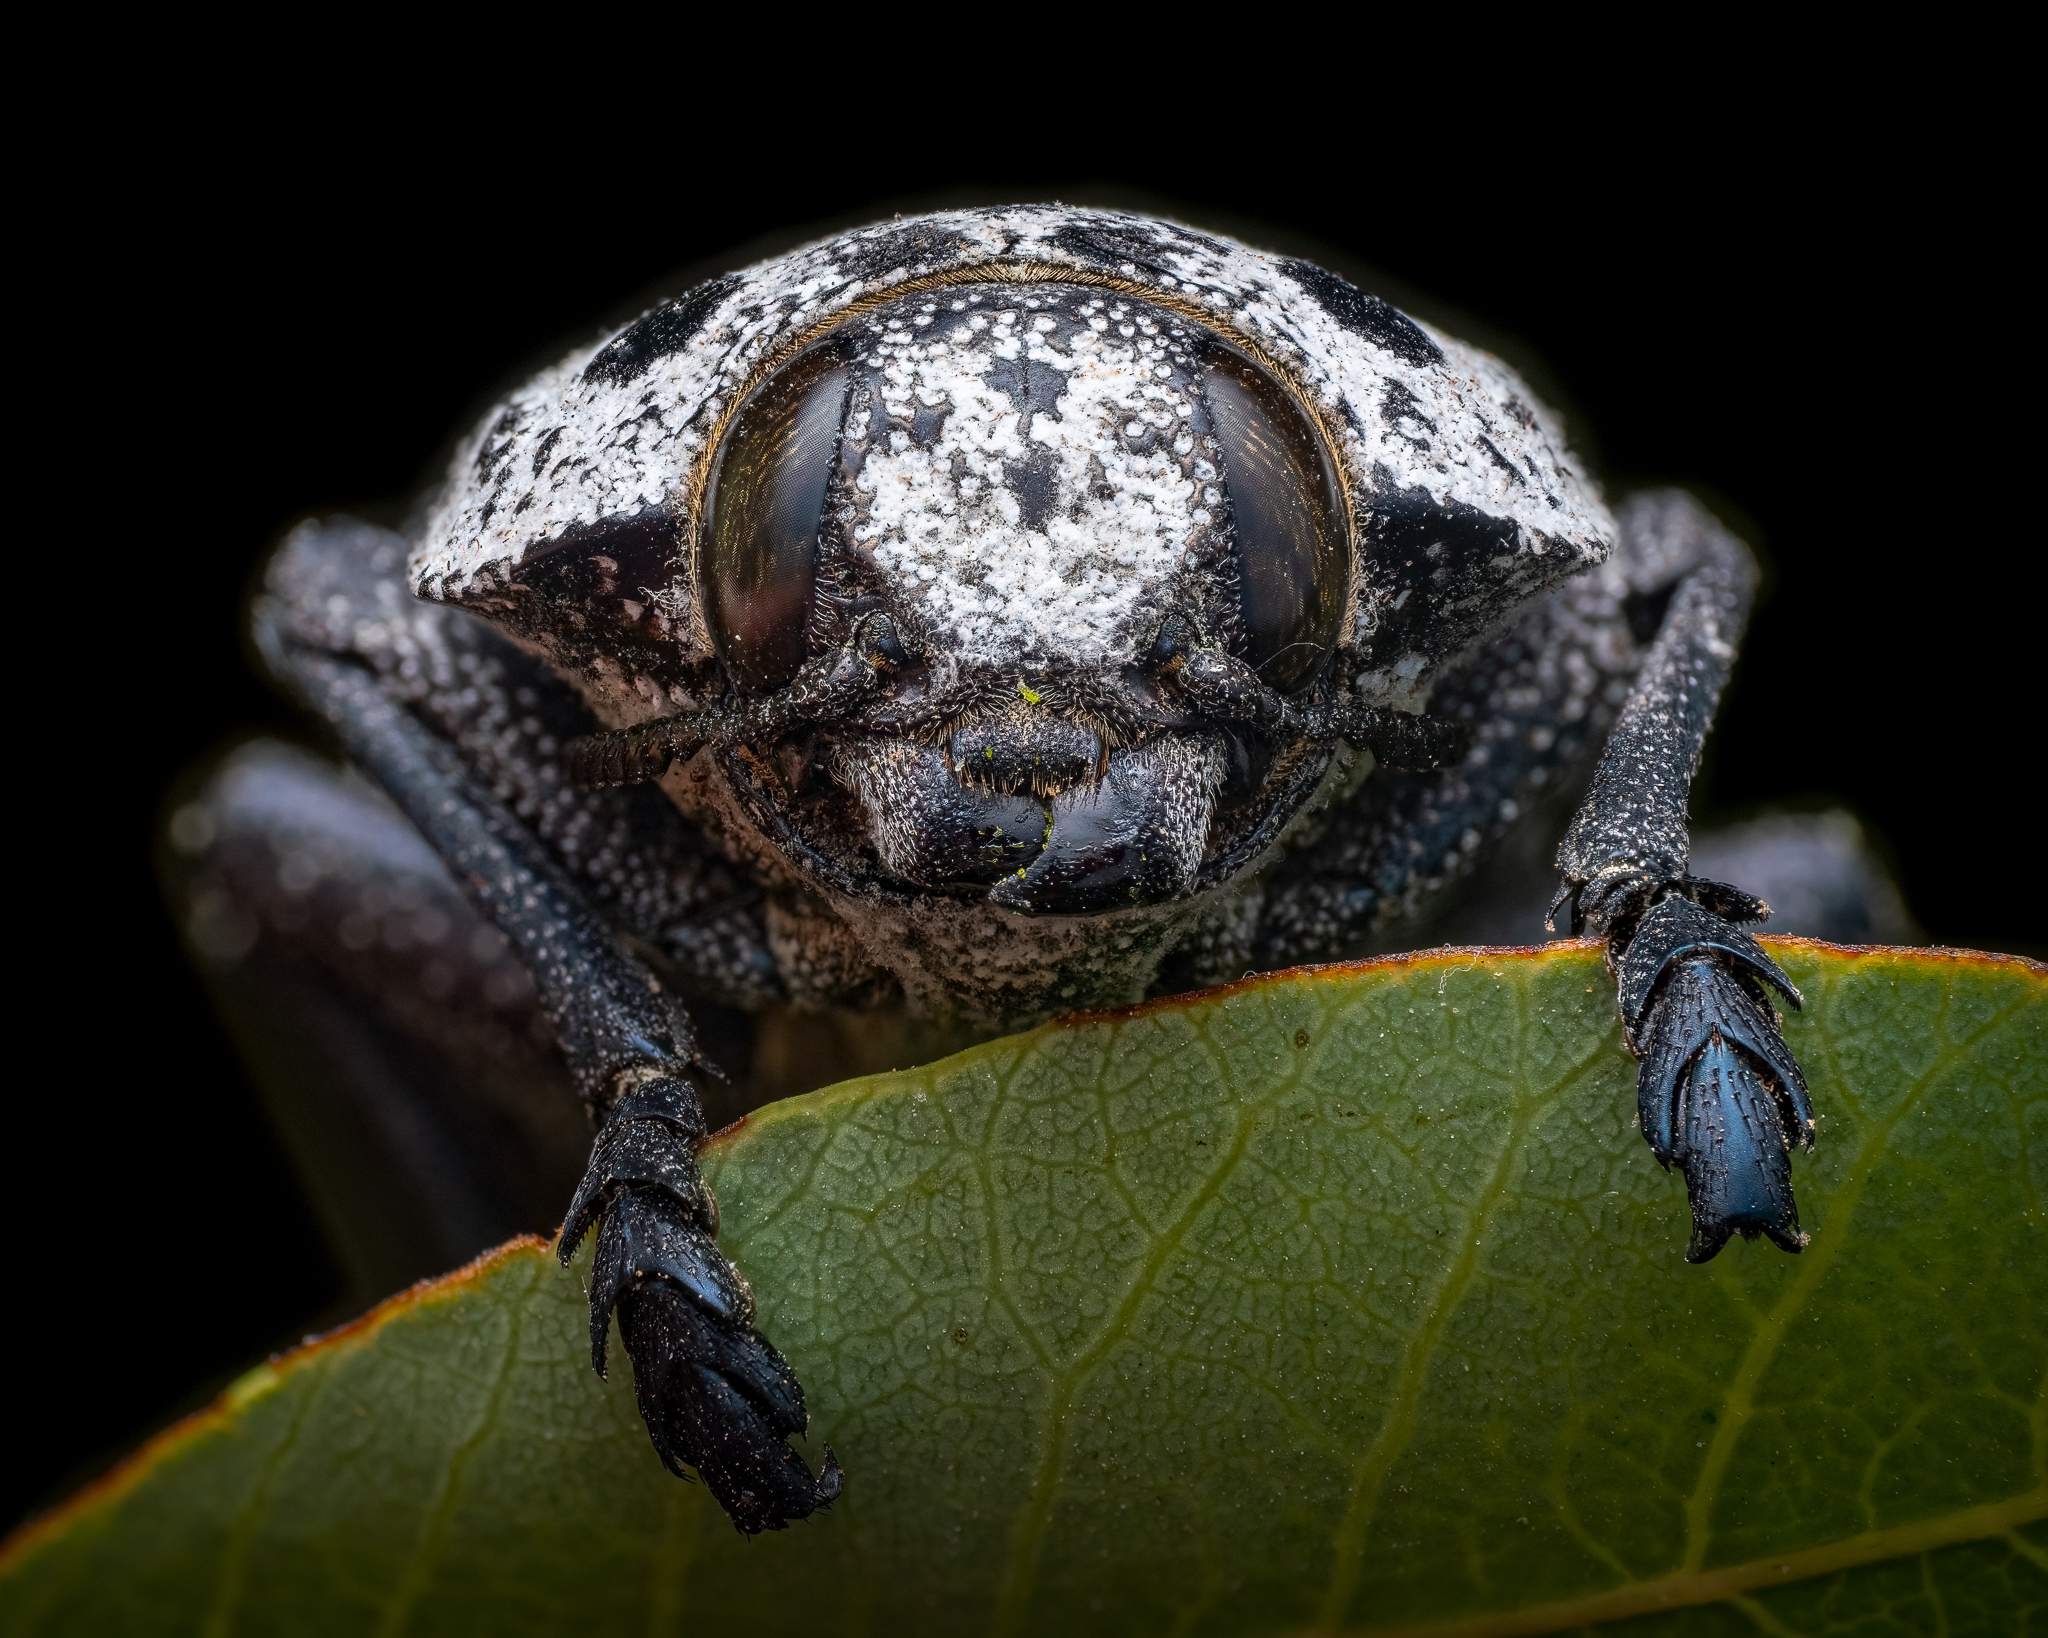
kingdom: Animalia
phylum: Arthropoda
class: Insecta
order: Coleoptera
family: Buprestidae
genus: Capnodis
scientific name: Capnodis cariosa
